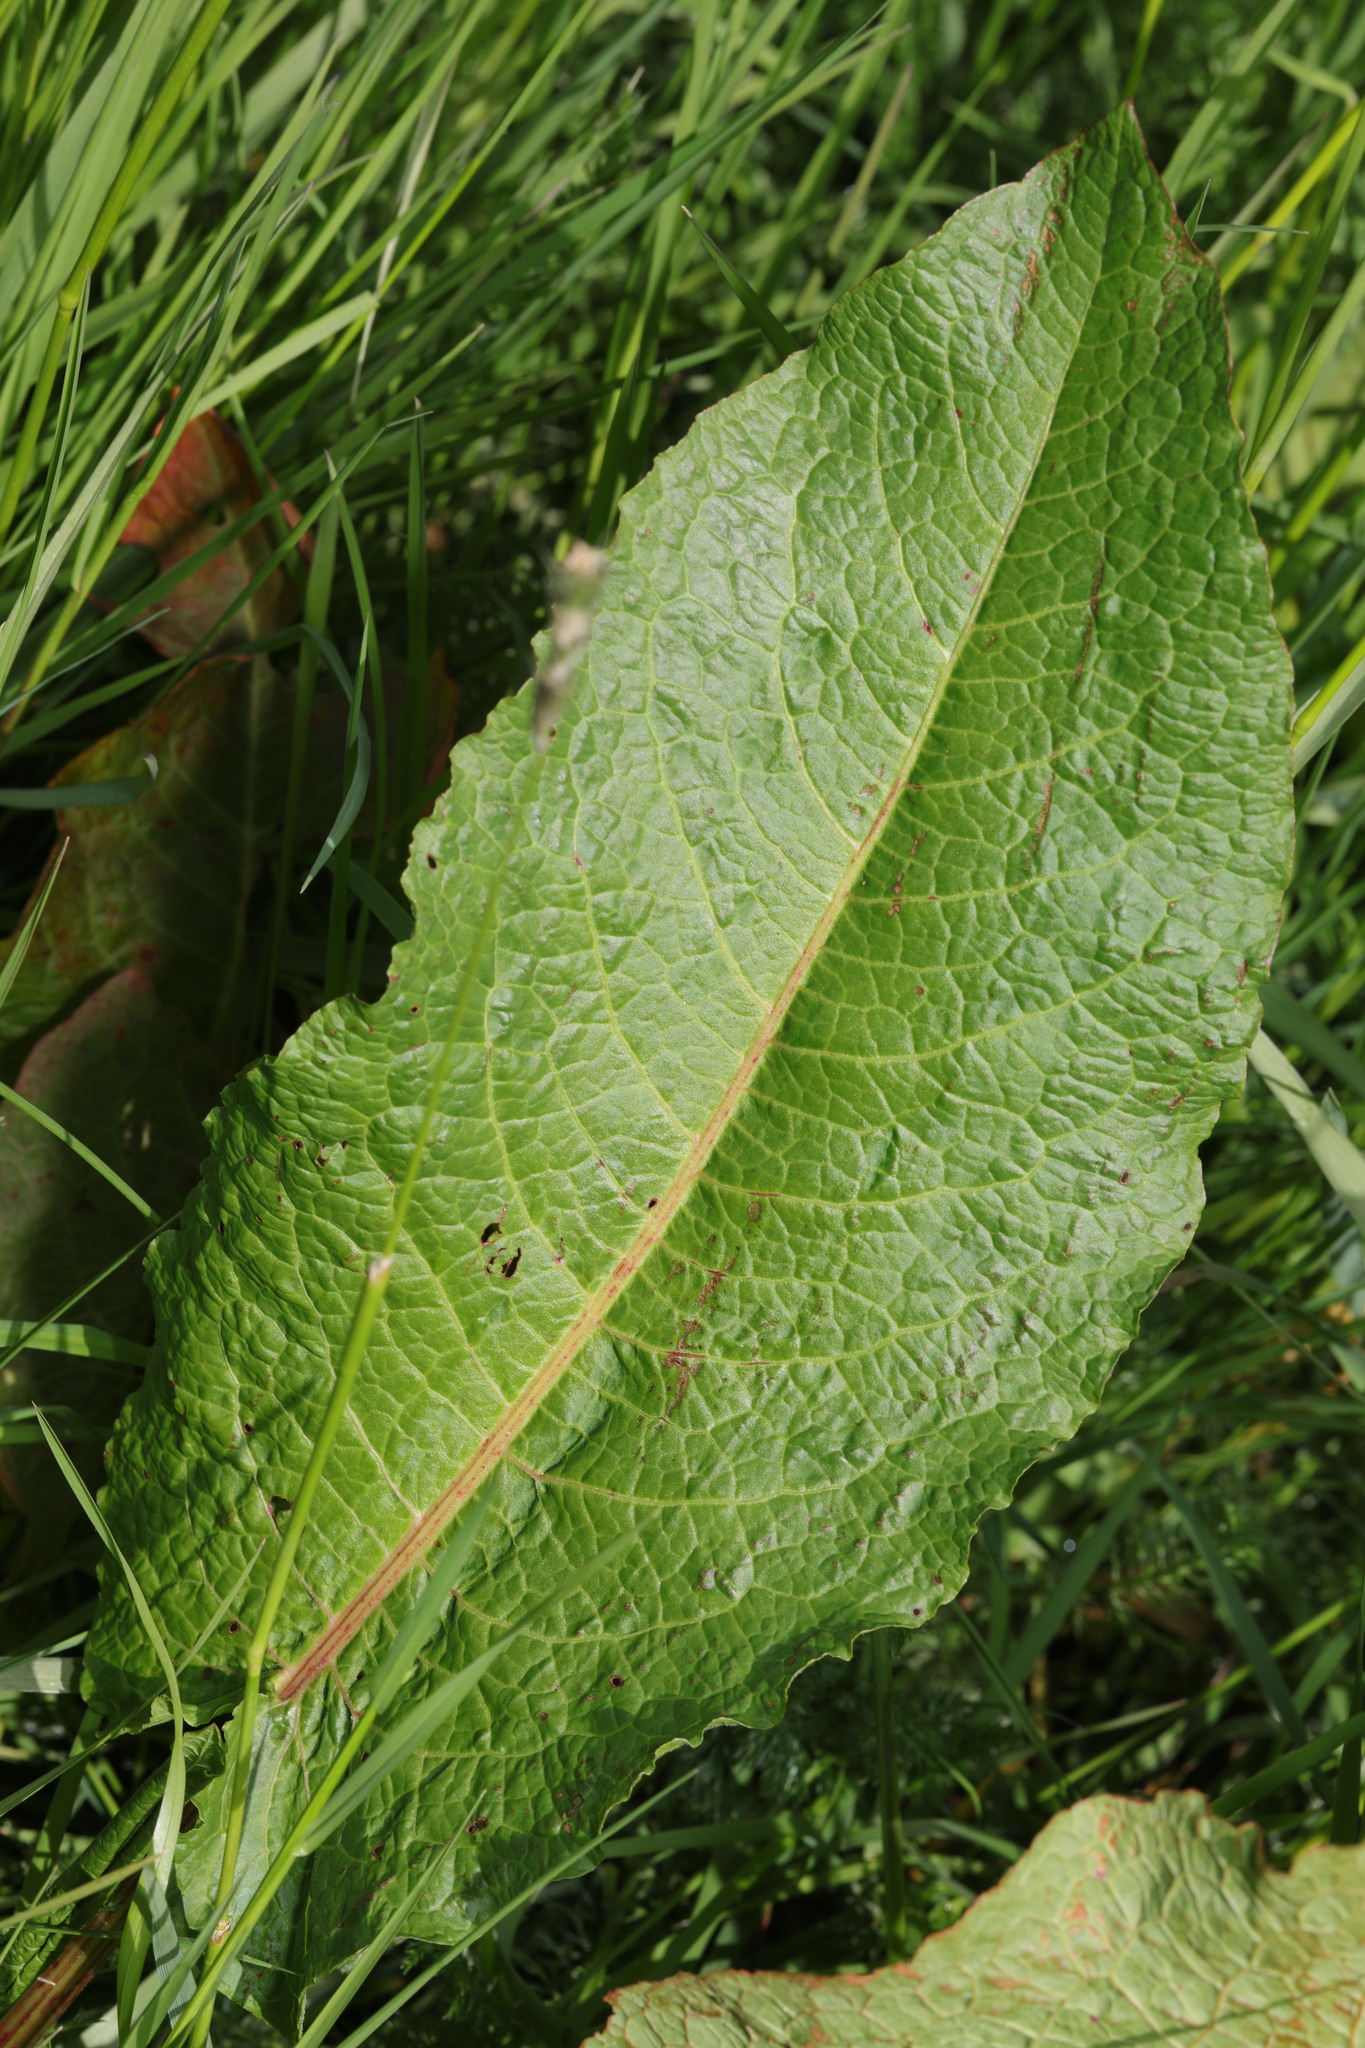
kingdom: Plantae
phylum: Tracheophyta
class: Magnoliopsida
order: Caryophyllales
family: Polygonaceae
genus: Rumex
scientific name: Rumex obtusifolius
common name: Bitter dock
